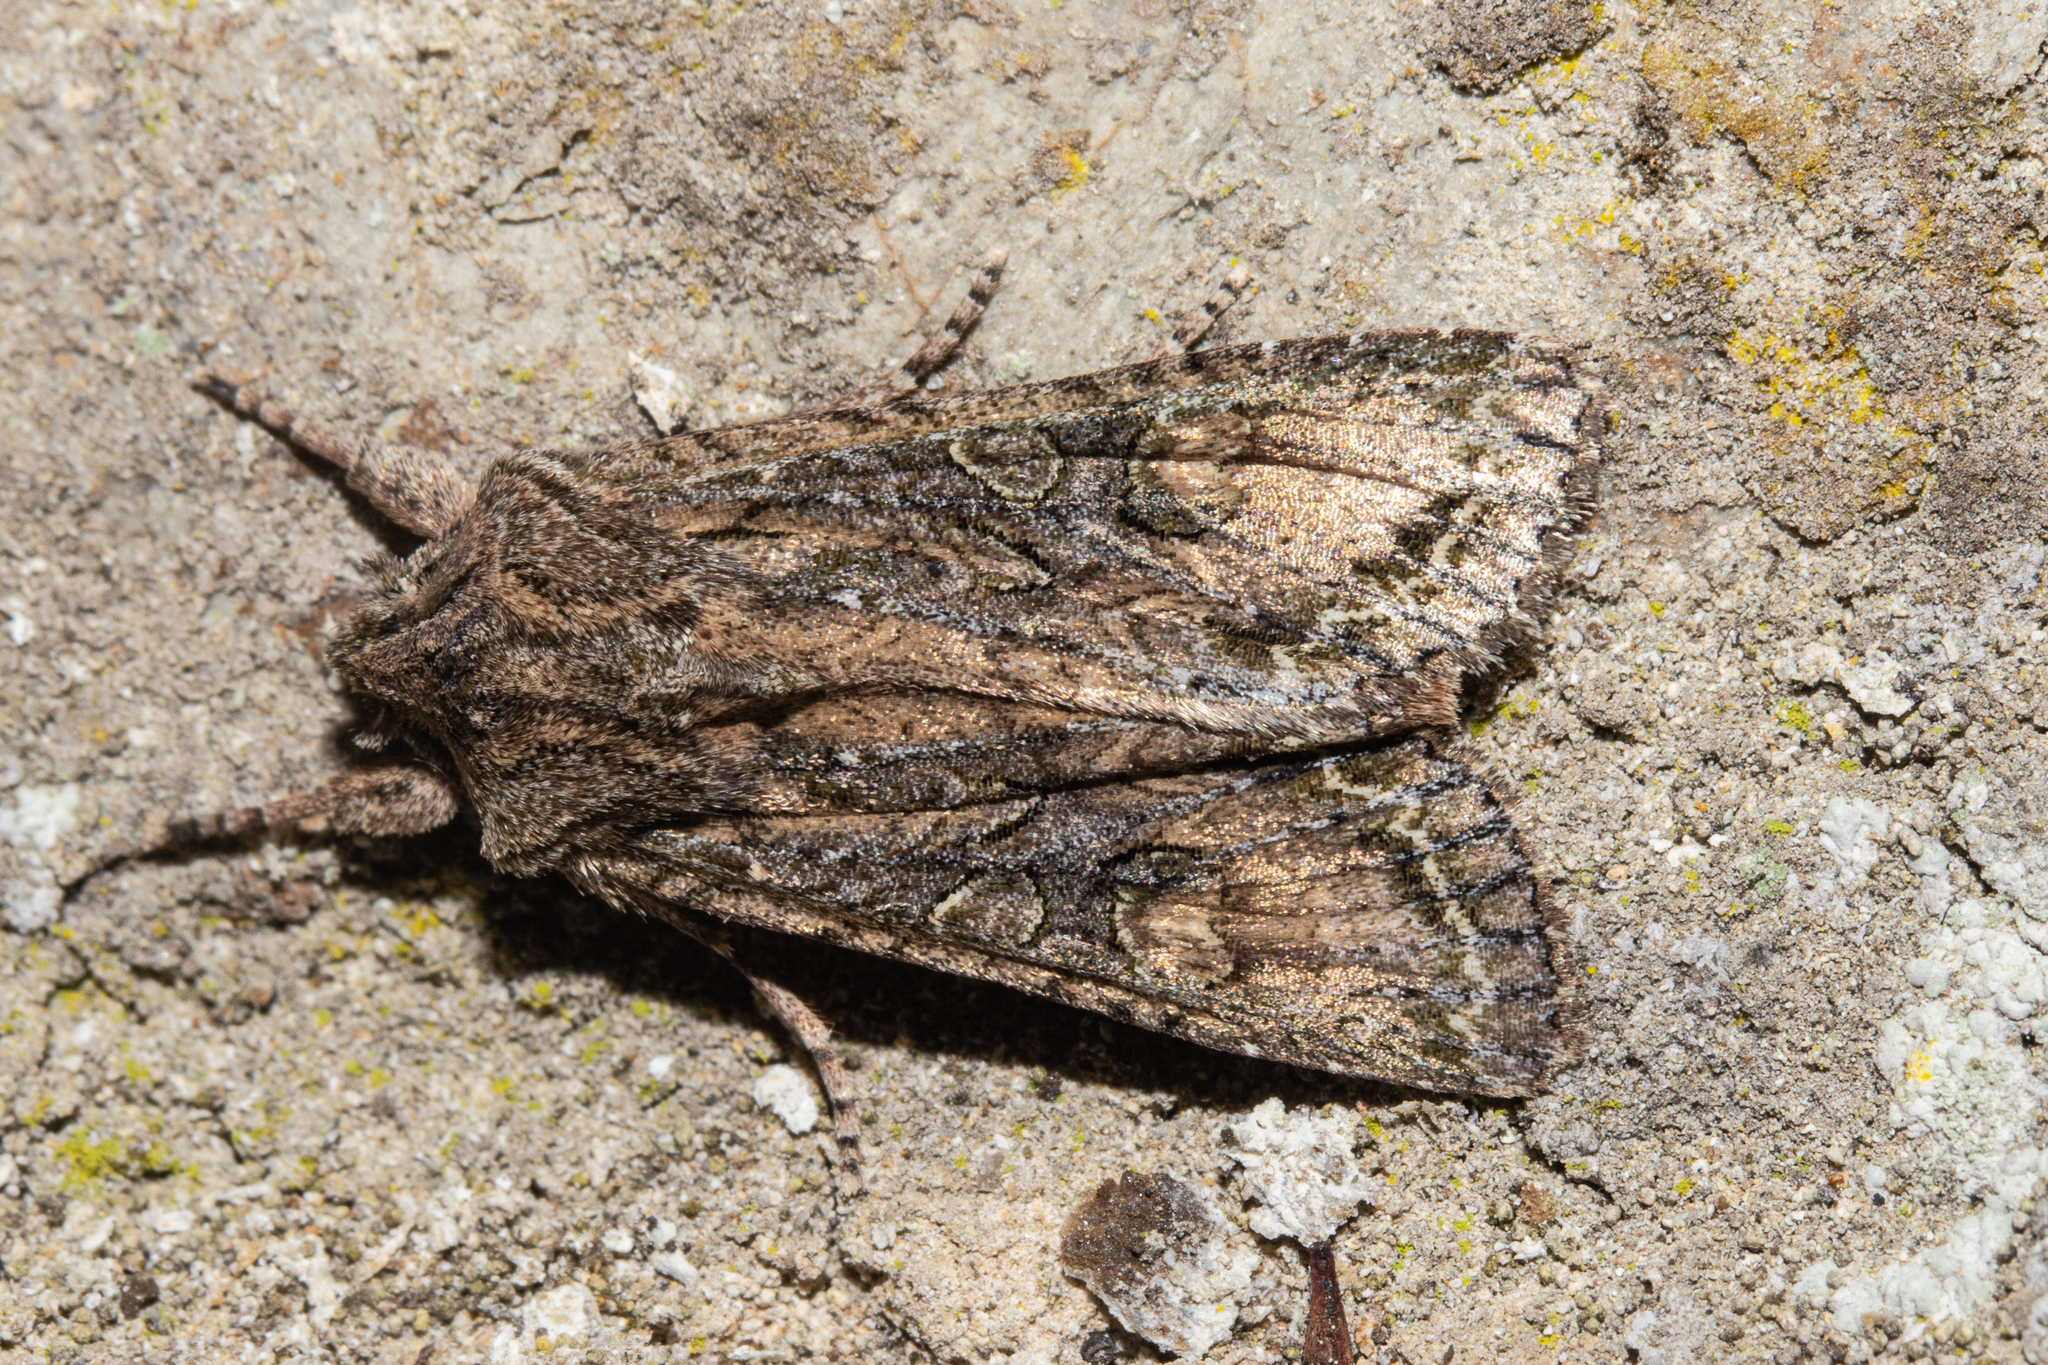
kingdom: Animalia
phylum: Arthropoda
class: Insecta
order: Lepidoptera
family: Noctuidae
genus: Ichneutica
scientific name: Ichneutica mutans
